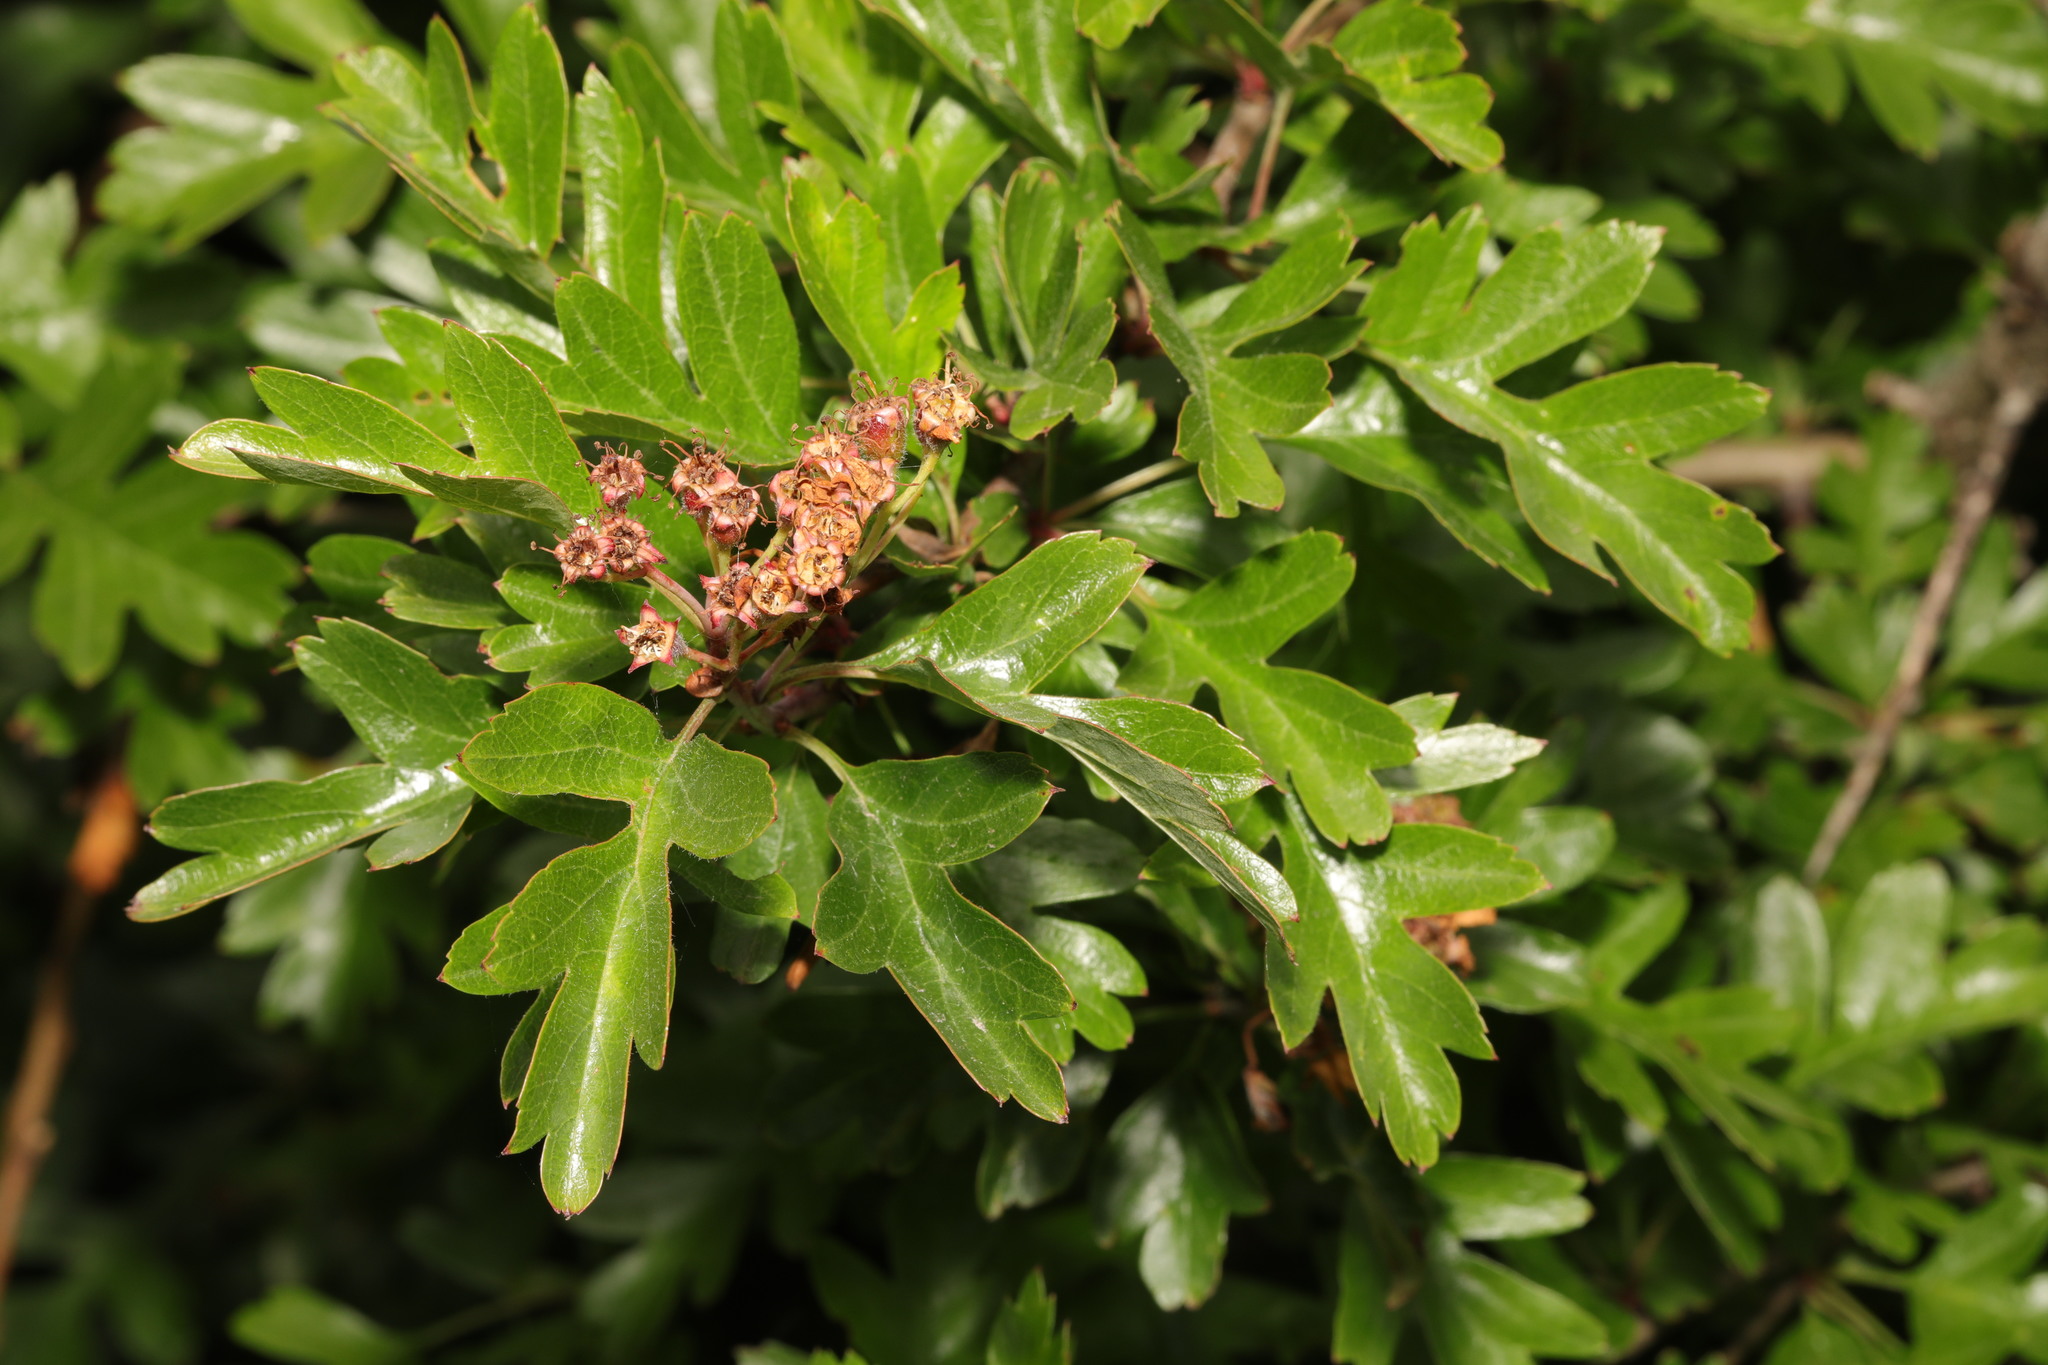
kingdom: Plantae
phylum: Tracheophyta
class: Magnoliopsida
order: Rosales
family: Rosaceae
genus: Crataegus
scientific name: Crataegus monogyna
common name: Hawthorn
